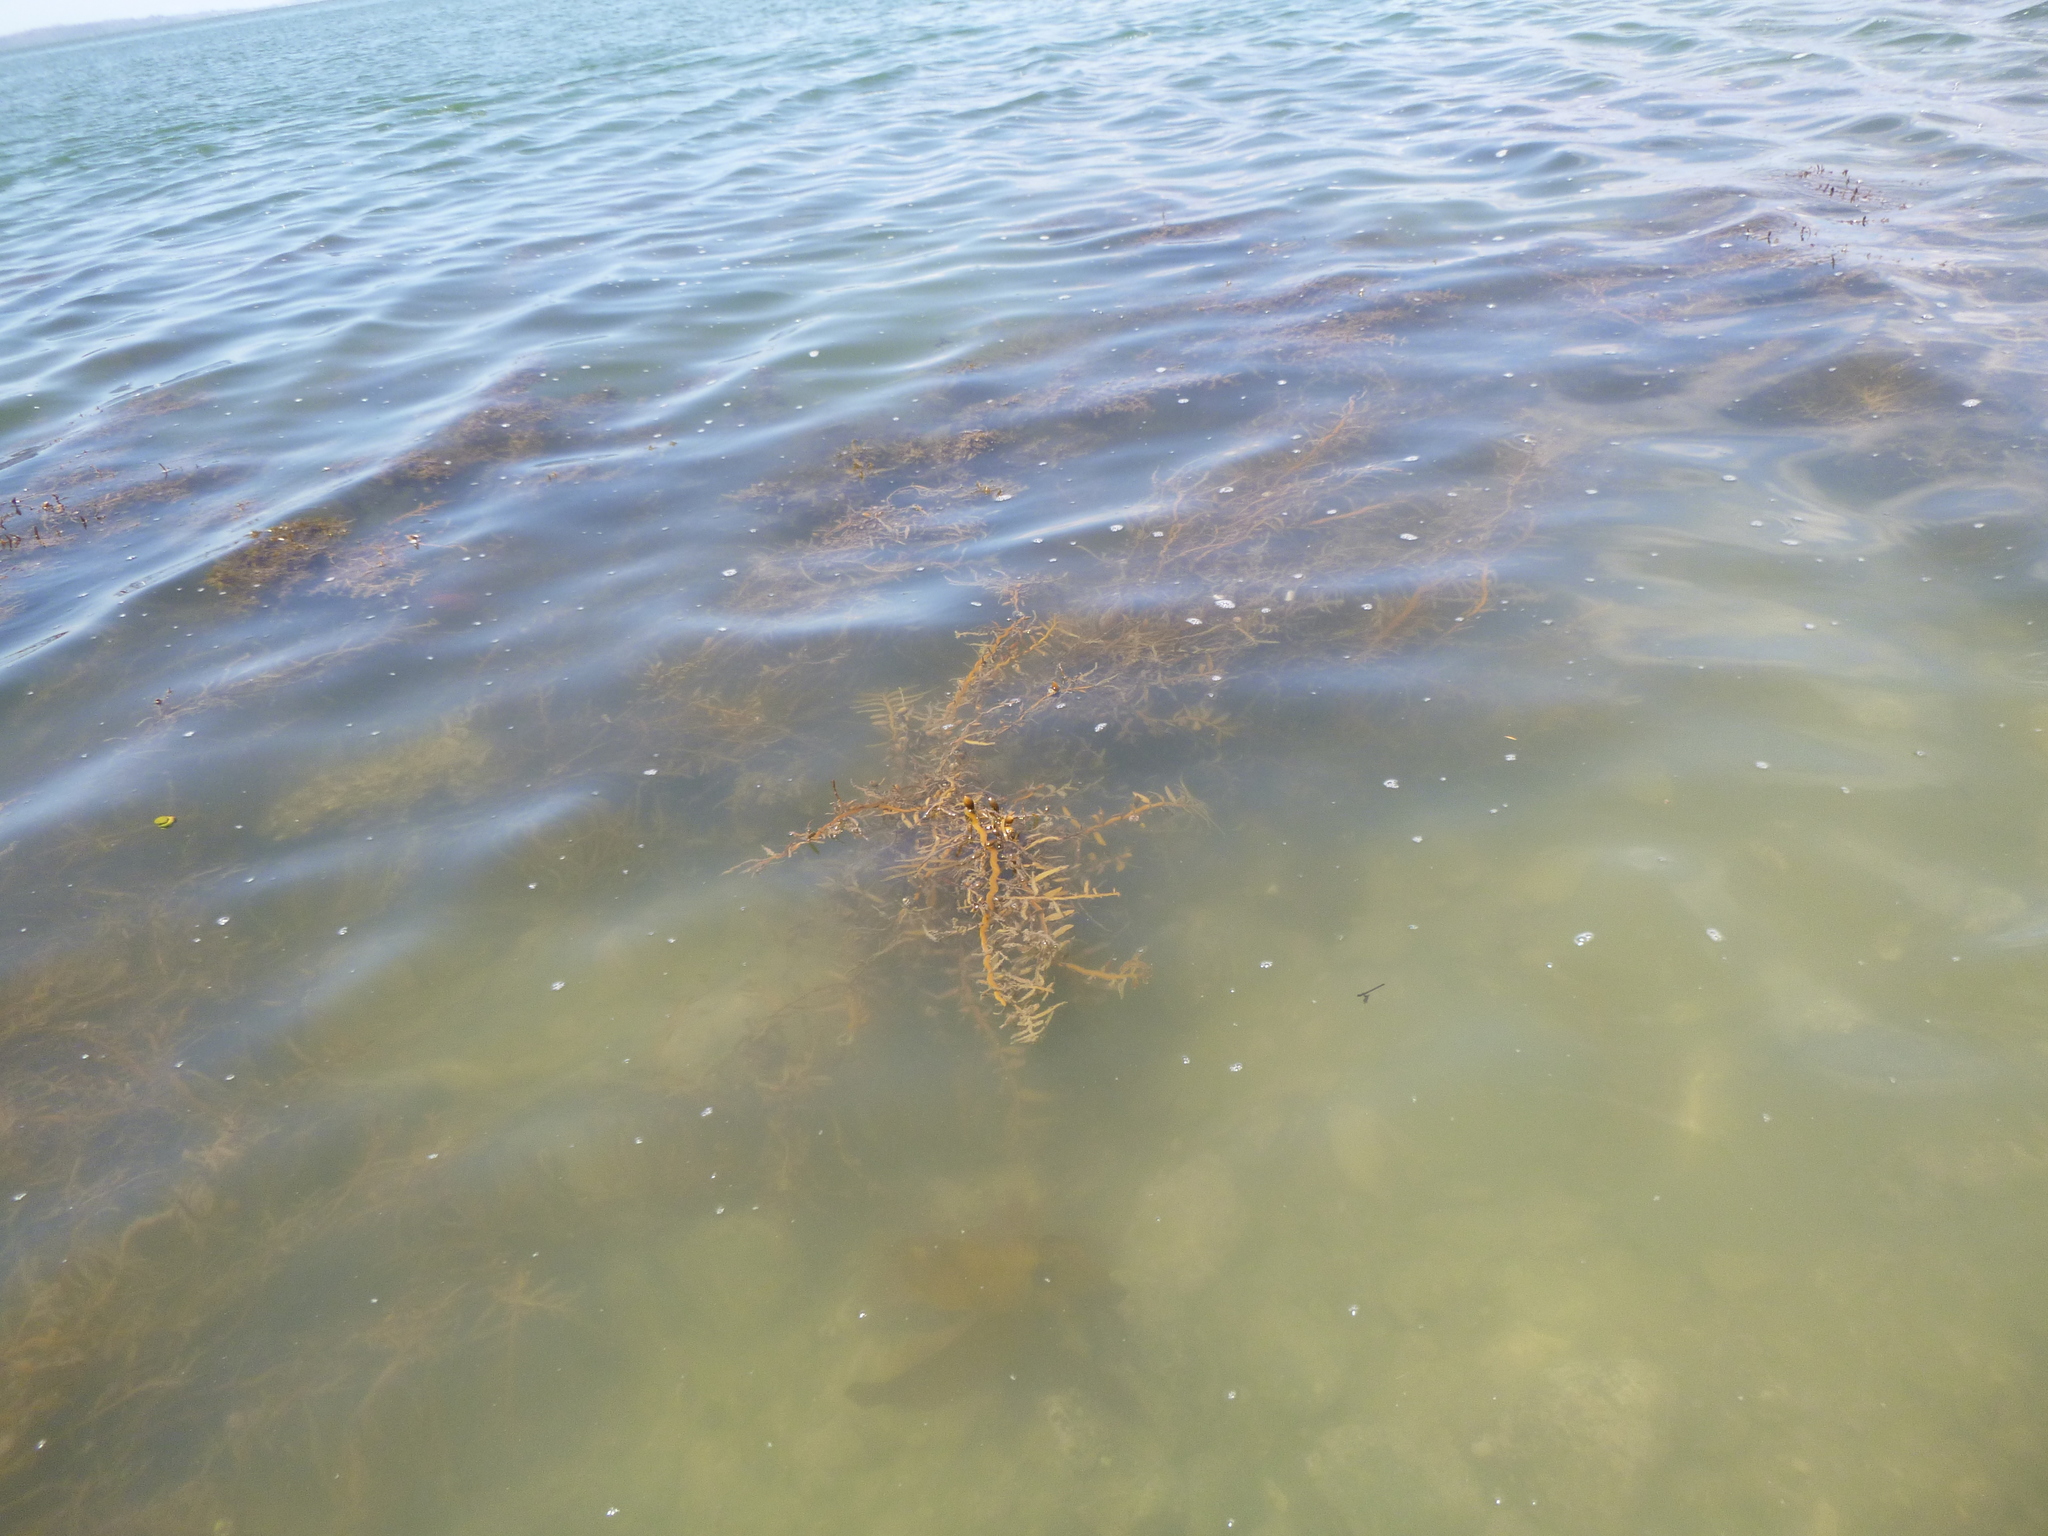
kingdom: Chromista
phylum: Ochrophyta
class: Phaeophyceae
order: Fucales
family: Sargassaceae
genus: Carpophyllum
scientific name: Carpophyllum maschalocarpum
